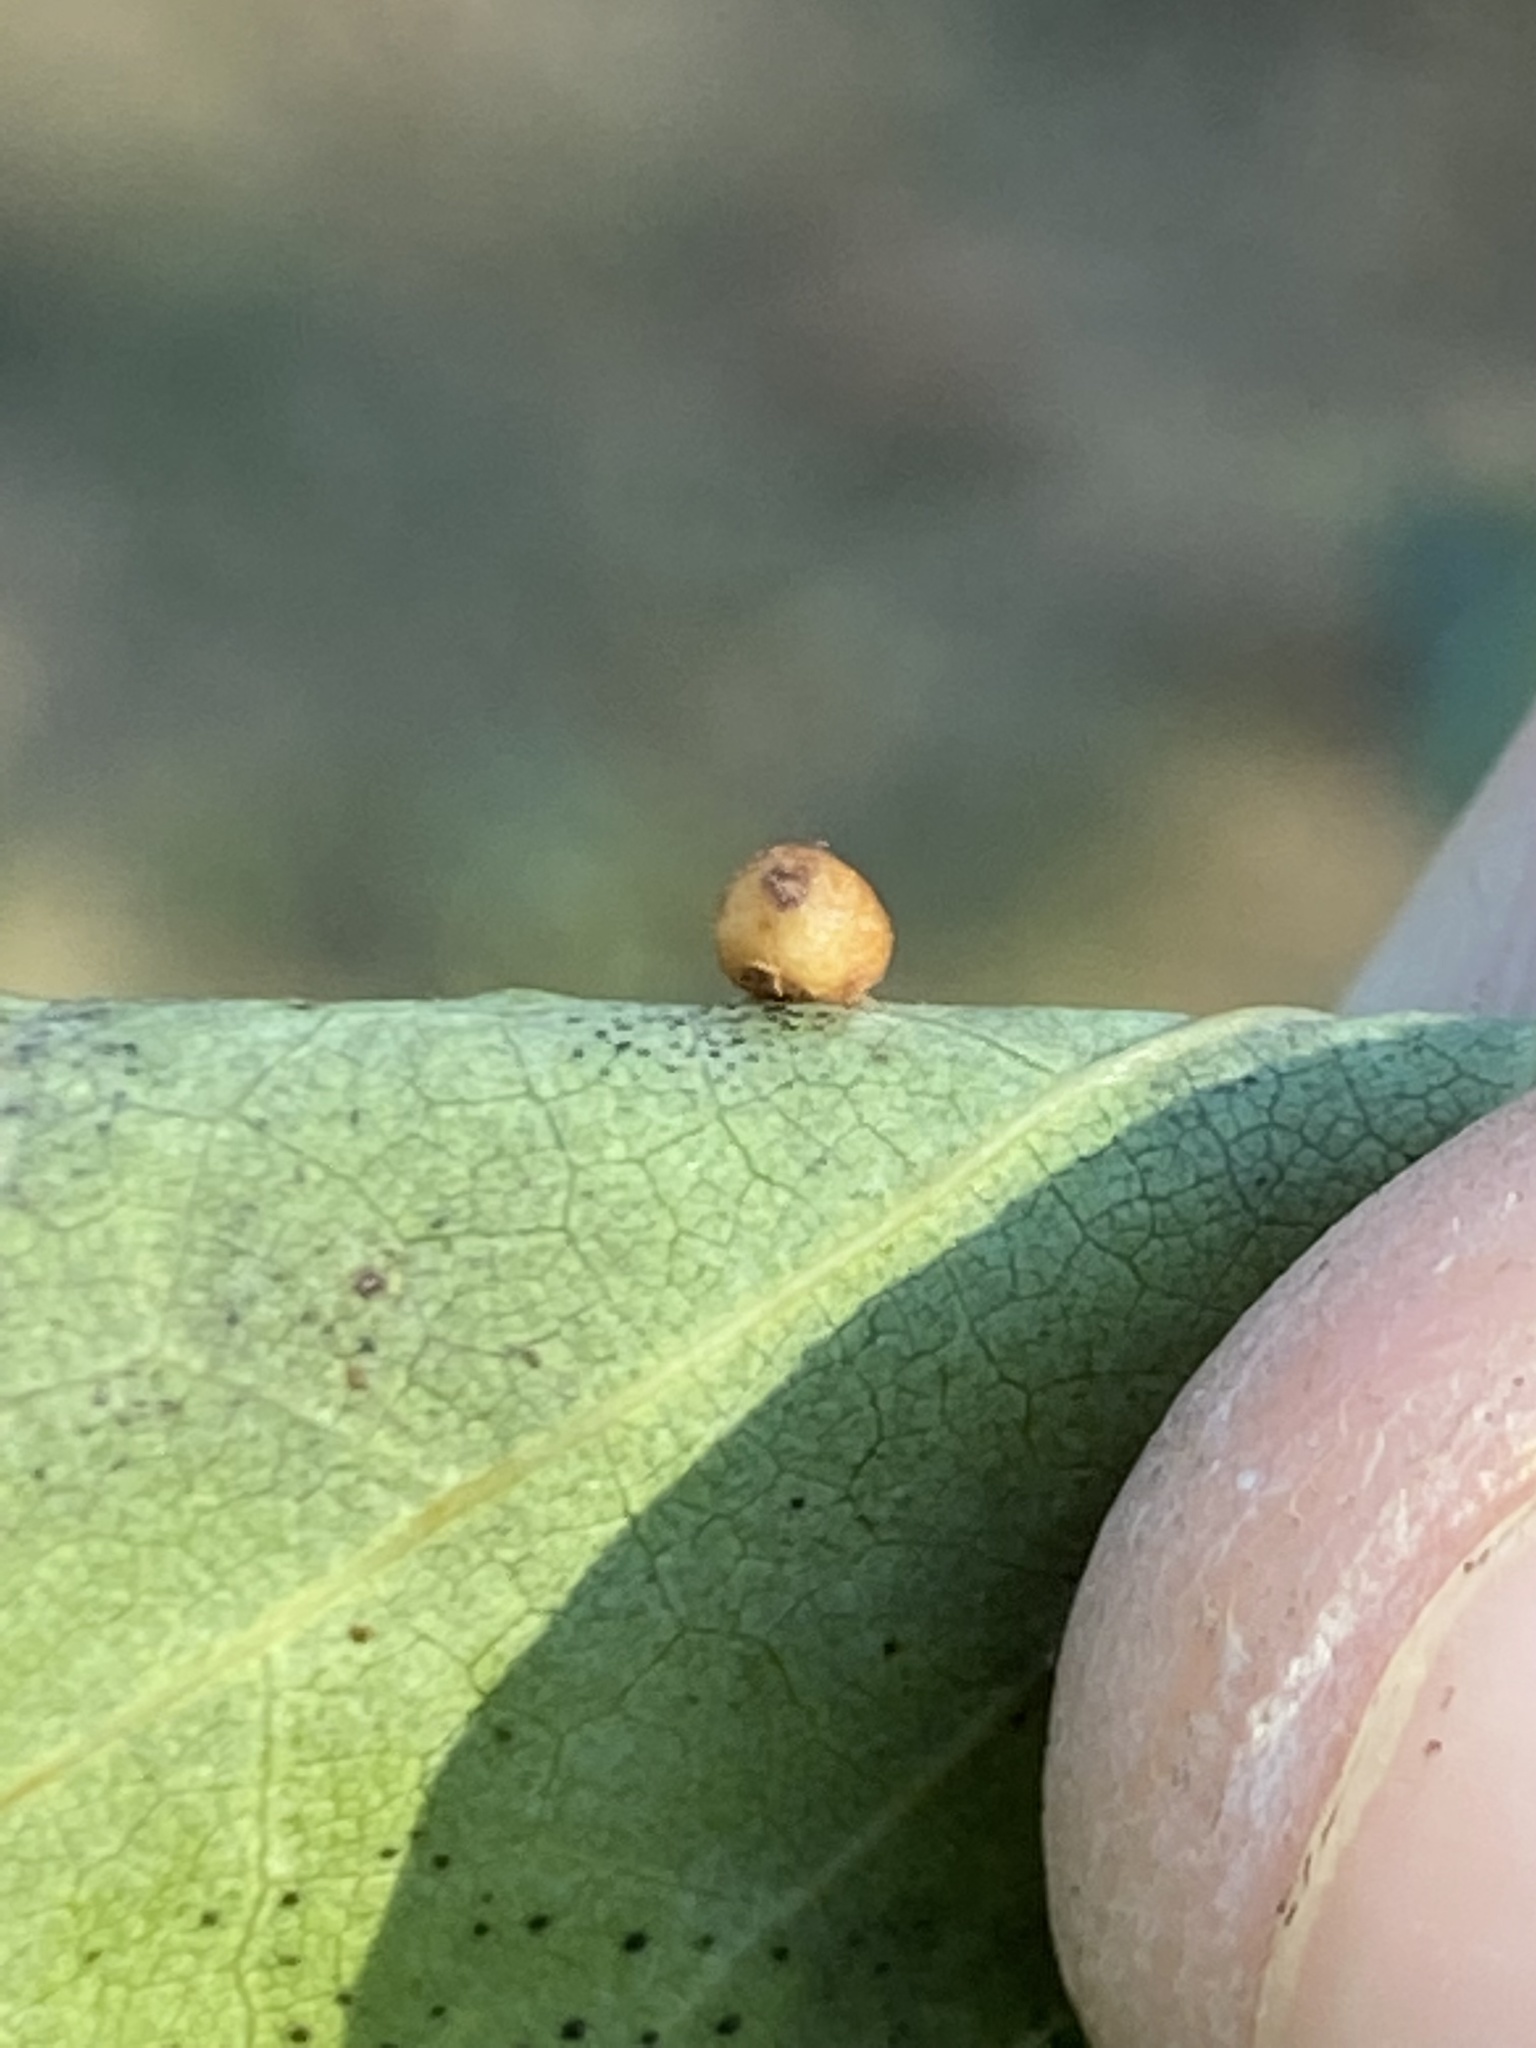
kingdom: Animalia
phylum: Arthropoda
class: Insecta
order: Diptera
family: Cecidomyiidae
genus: Polystepha
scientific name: Polystepha globosa
